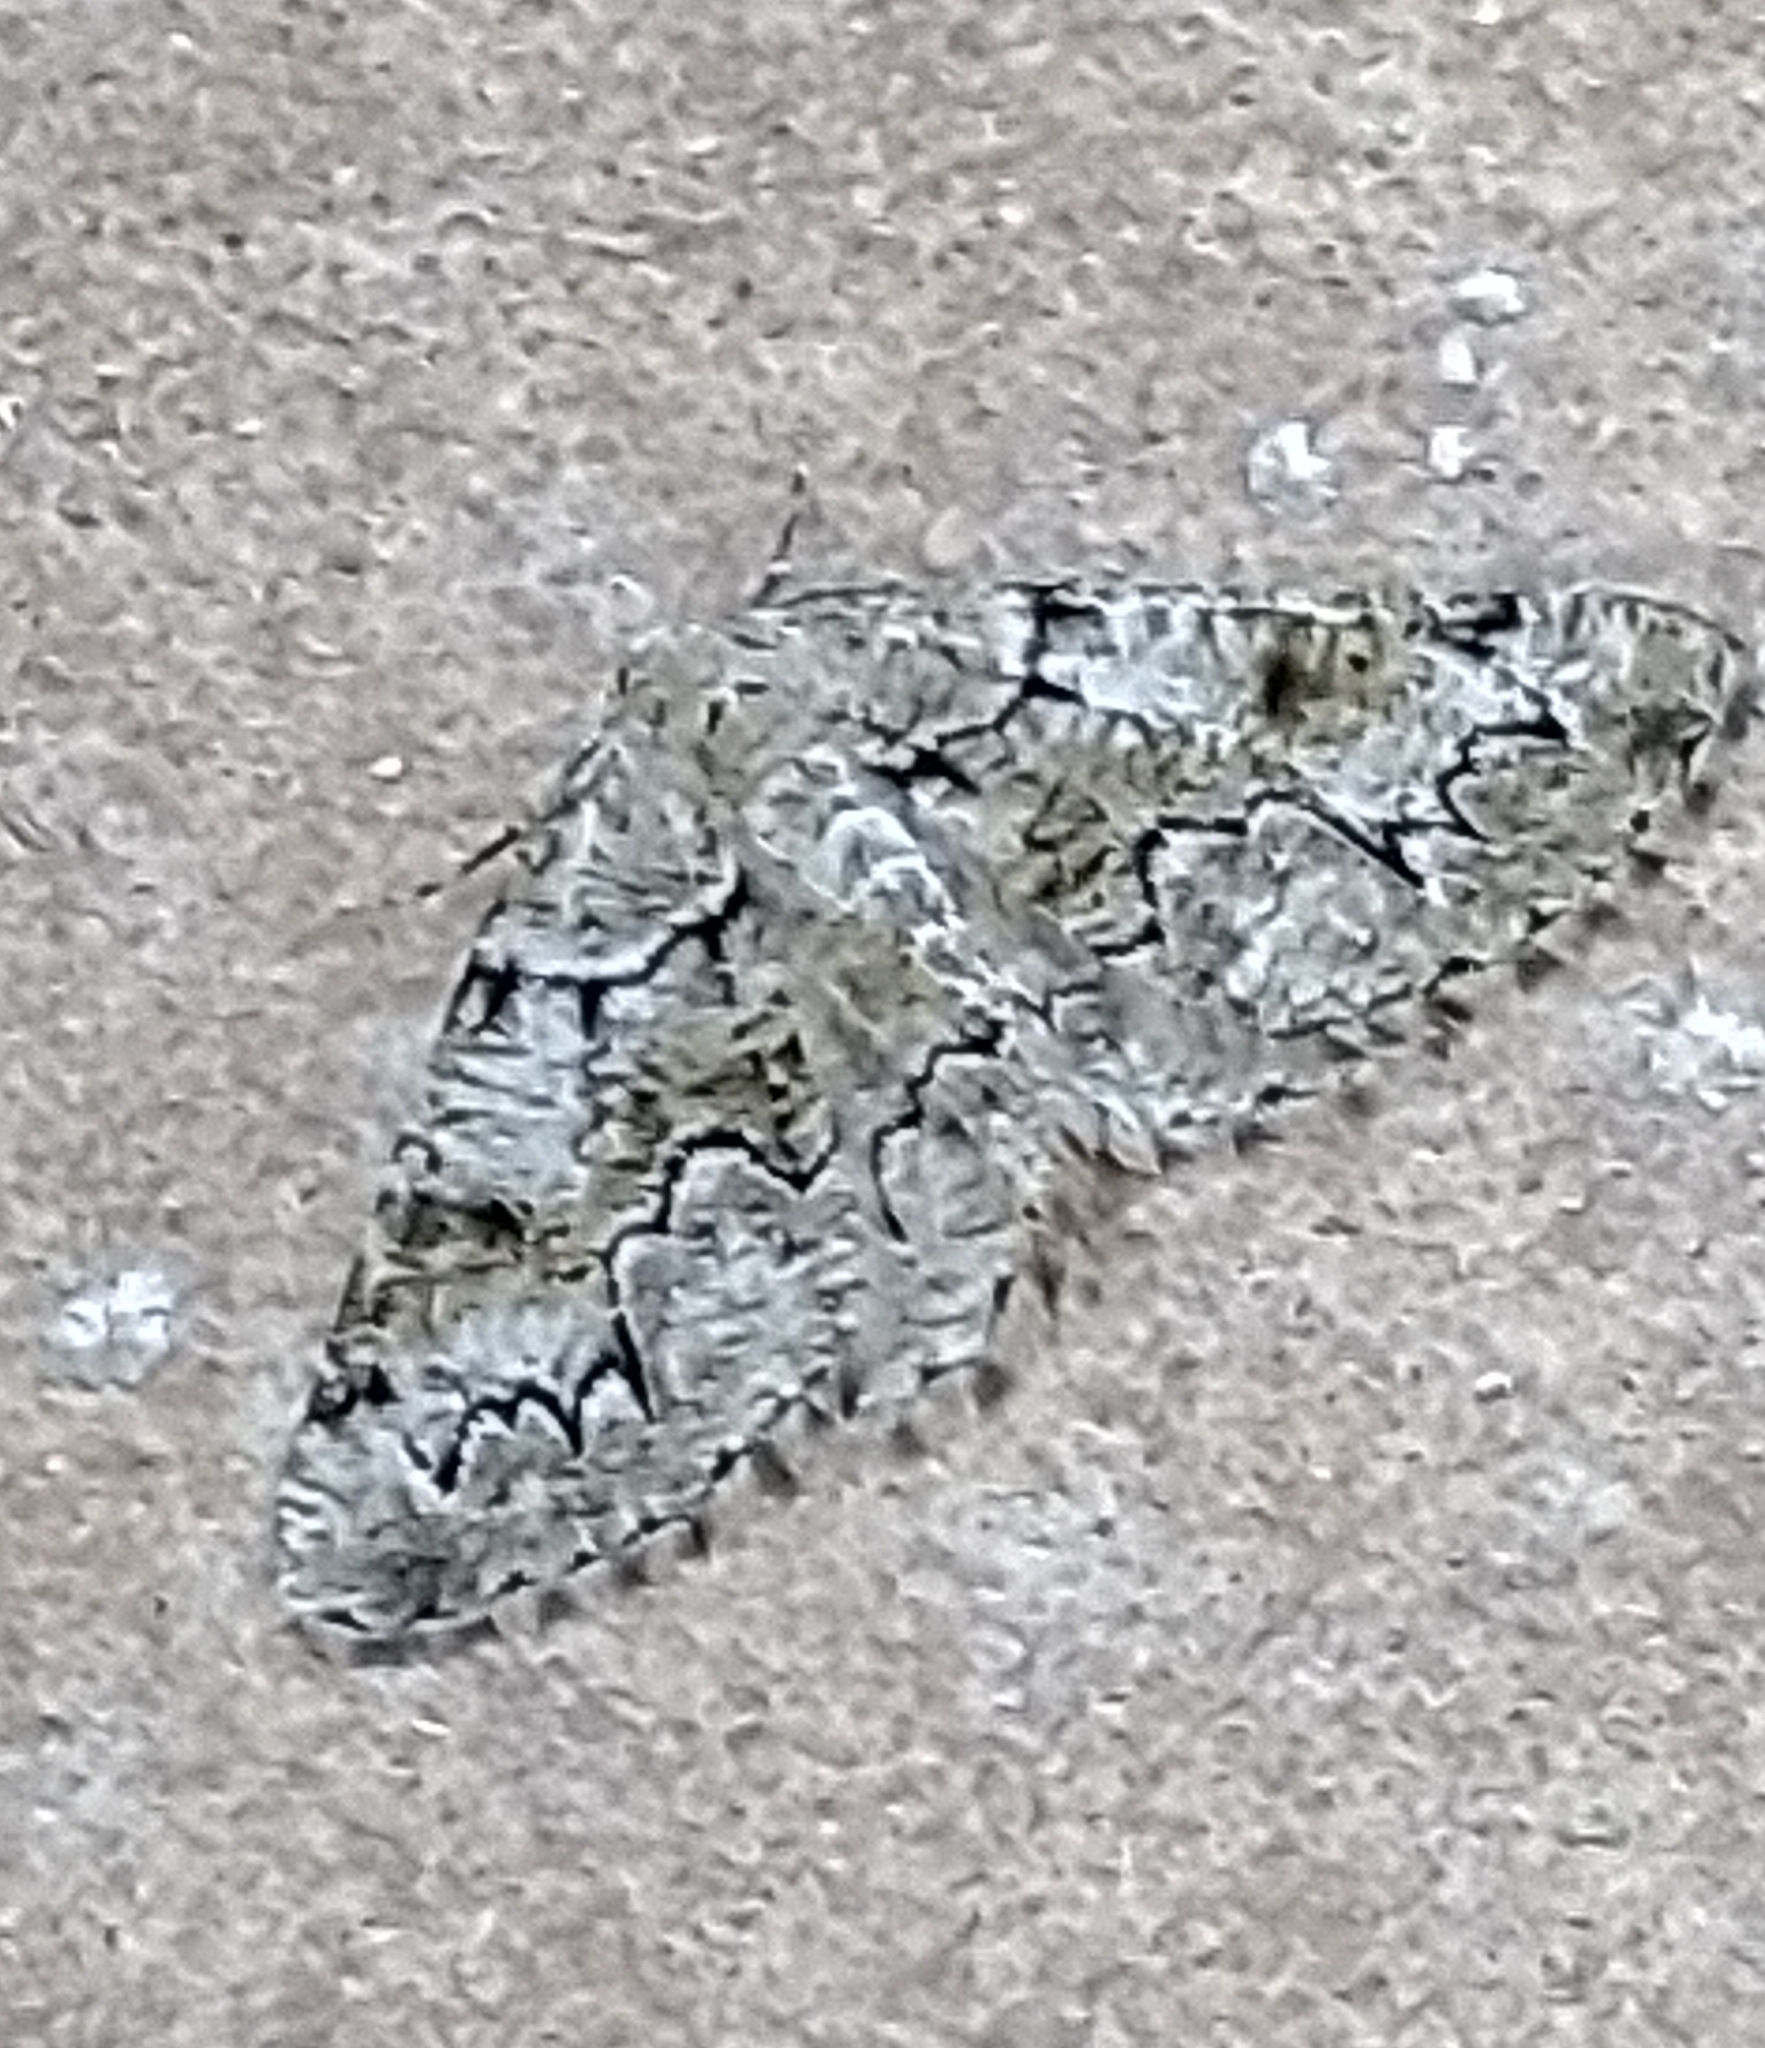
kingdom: Animalia
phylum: Arthropoda
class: Insecta
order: Lepidoptera
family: Geometridae
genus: Cleorodes
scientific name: Cleorodes lichenaria
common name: Brussels lace
